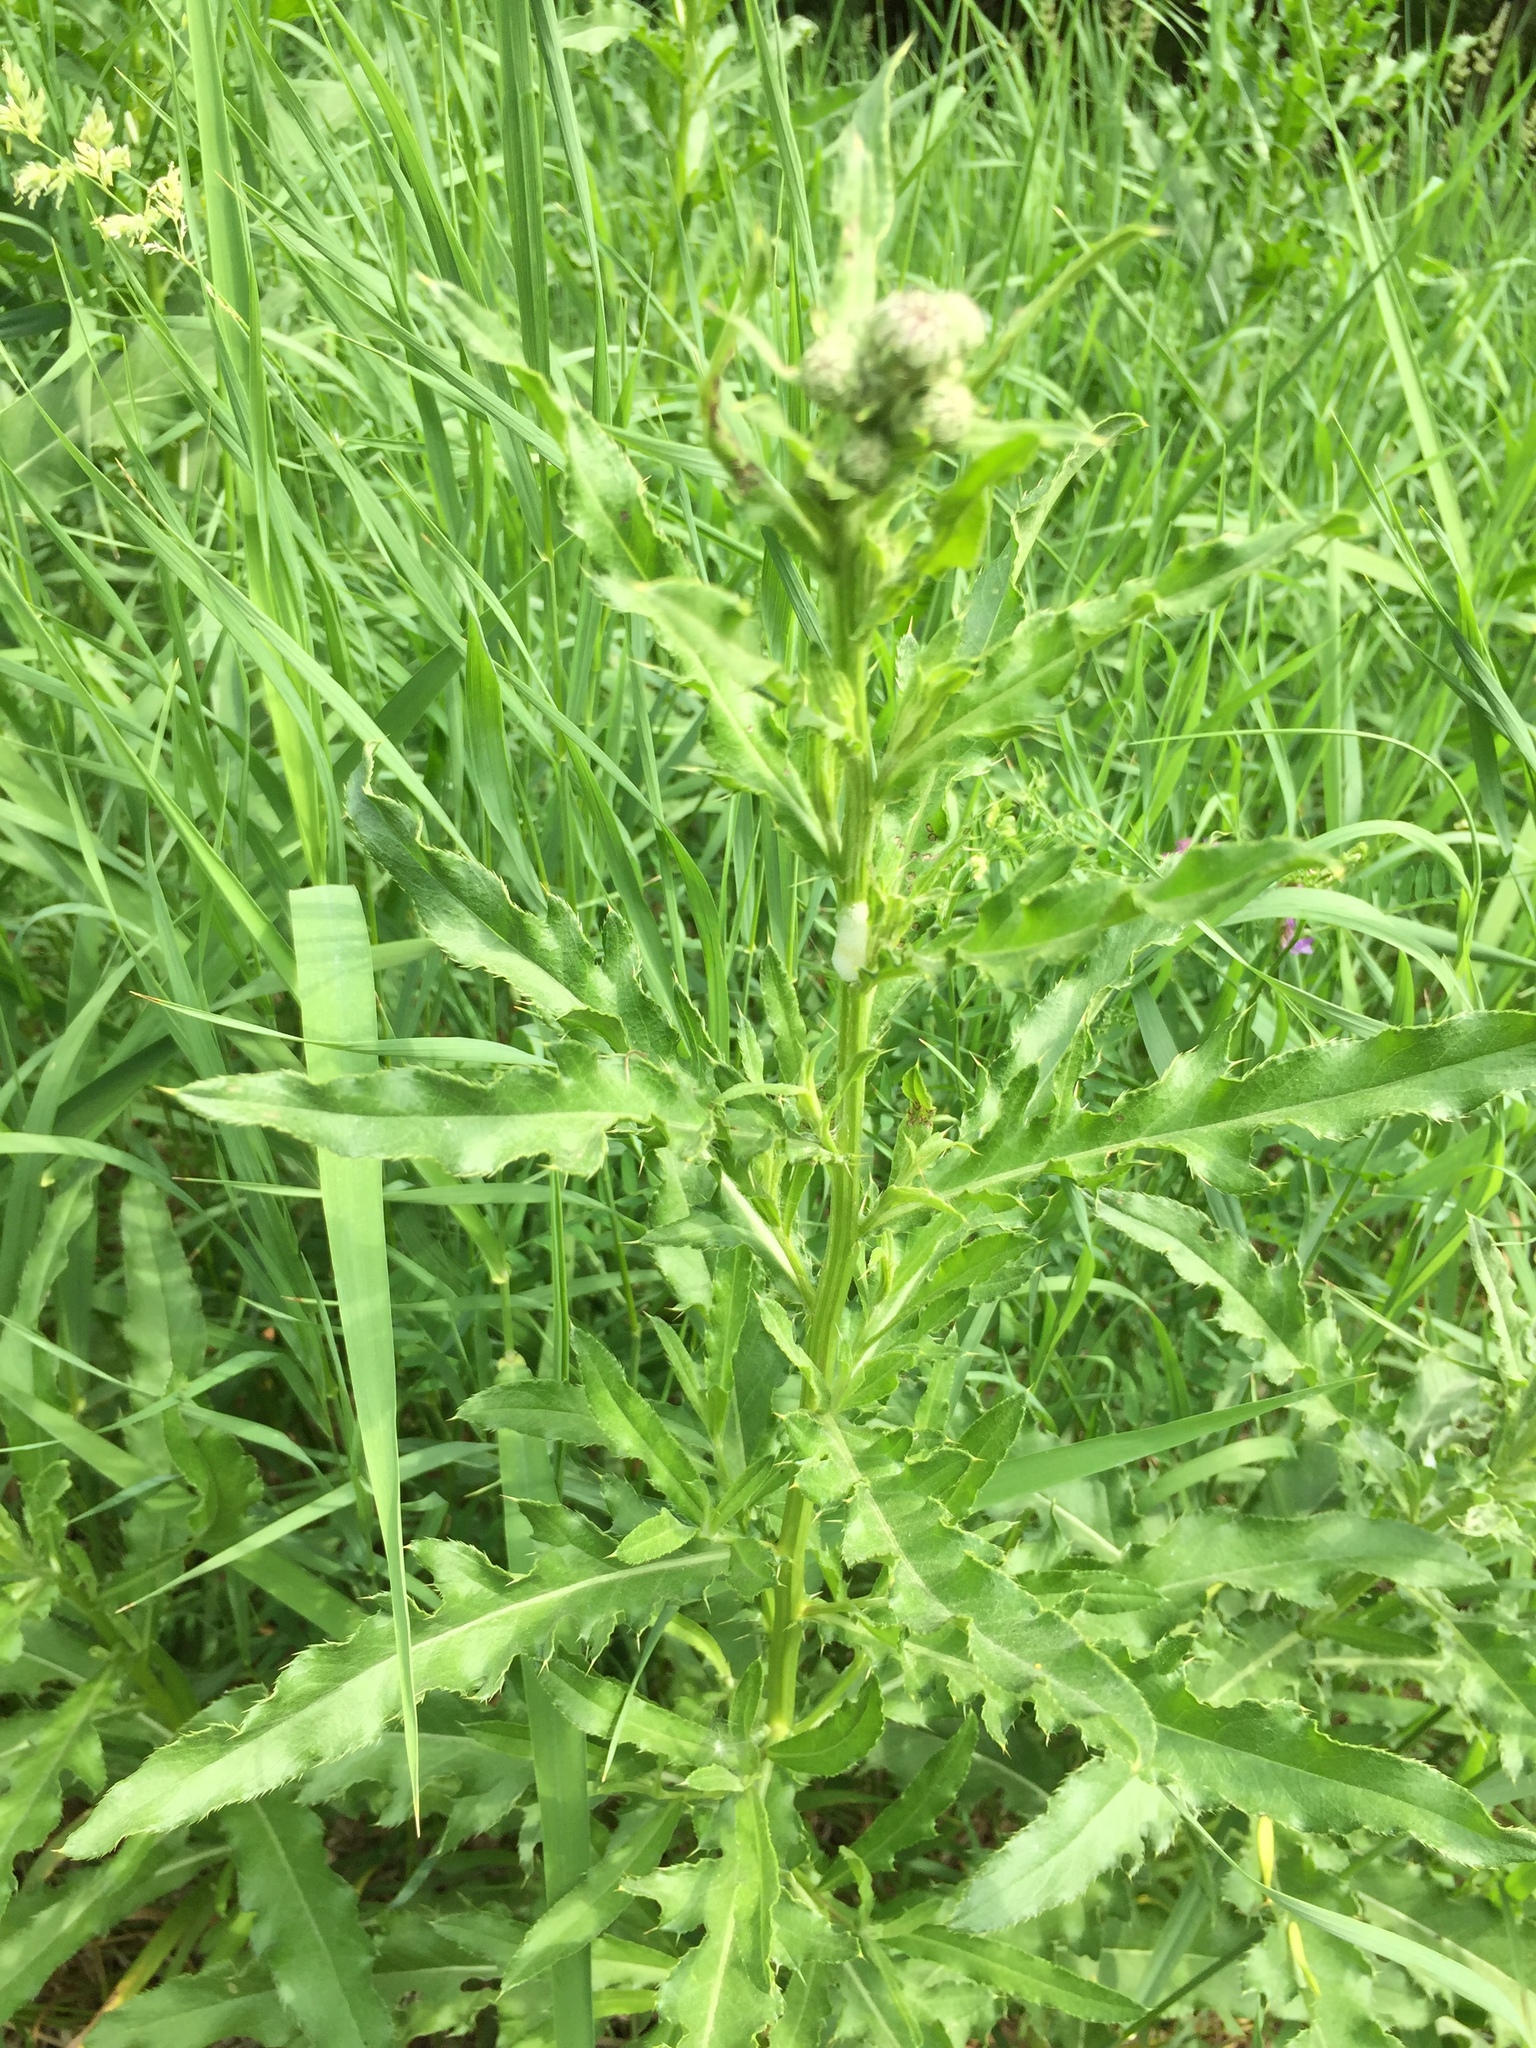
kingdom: Plantae
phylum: Tracheophyta
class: Magnoliopsida
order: Asterales
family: Asteraceae
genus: Cirsium
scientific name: Cirsium arvense
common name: Creeping thistle
